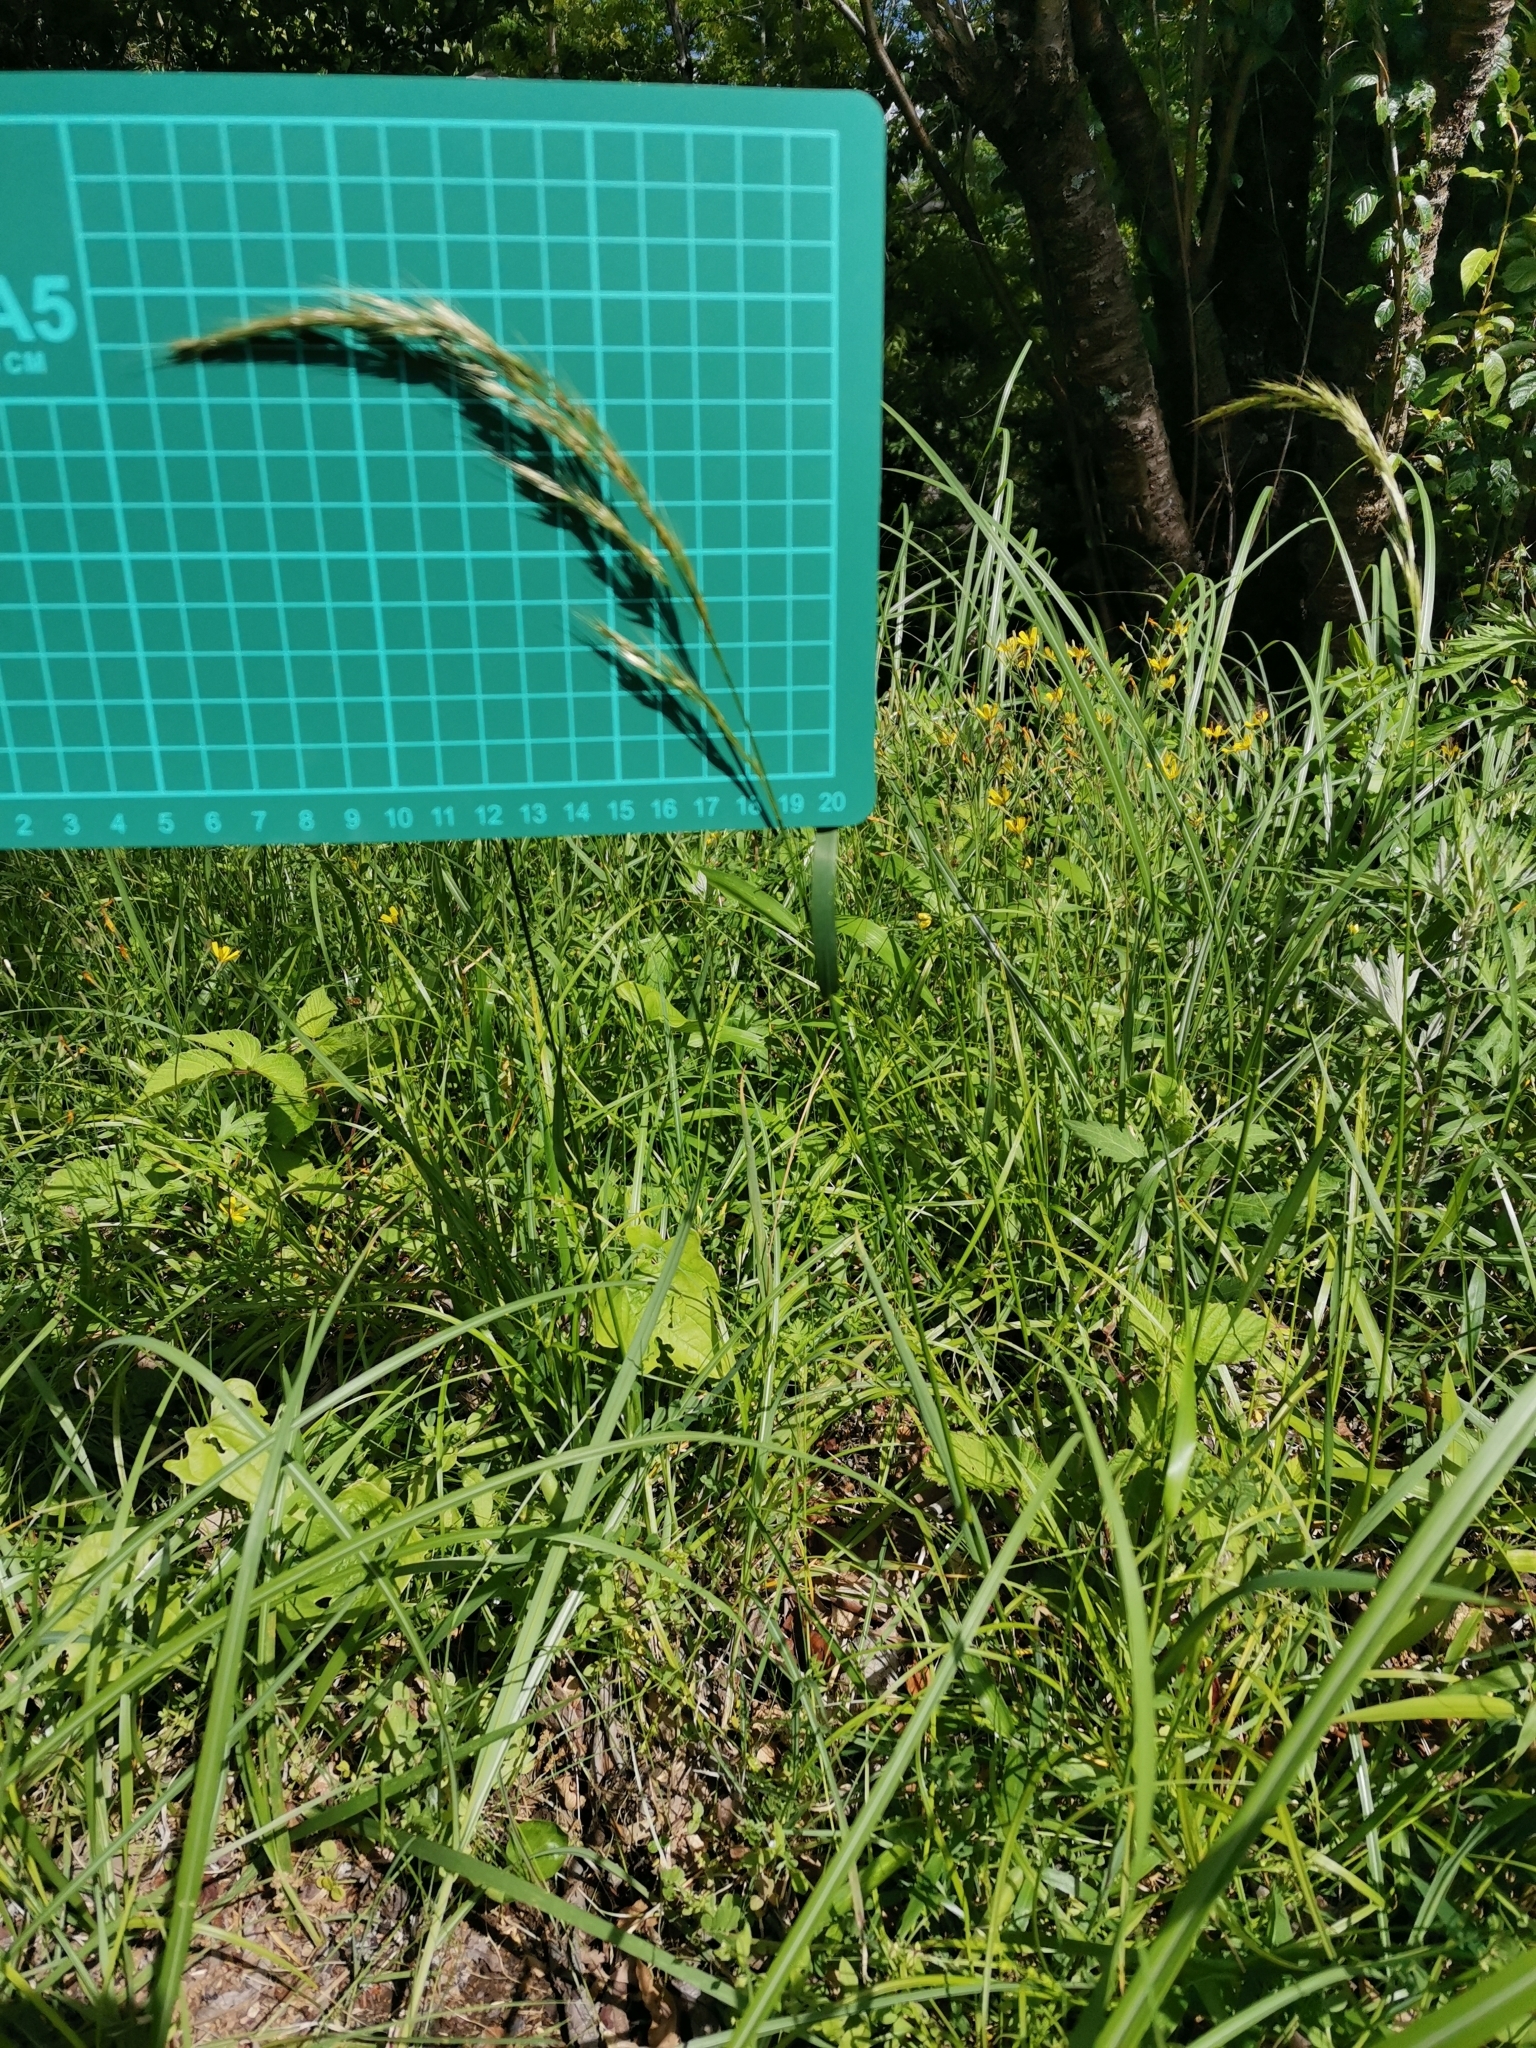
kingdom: Plantae
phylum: Tracheophyta
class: Liliopsida
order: Poales
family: Poaceae
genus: Sibirotrisetum
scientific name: Sibirotrisetum bifidum
